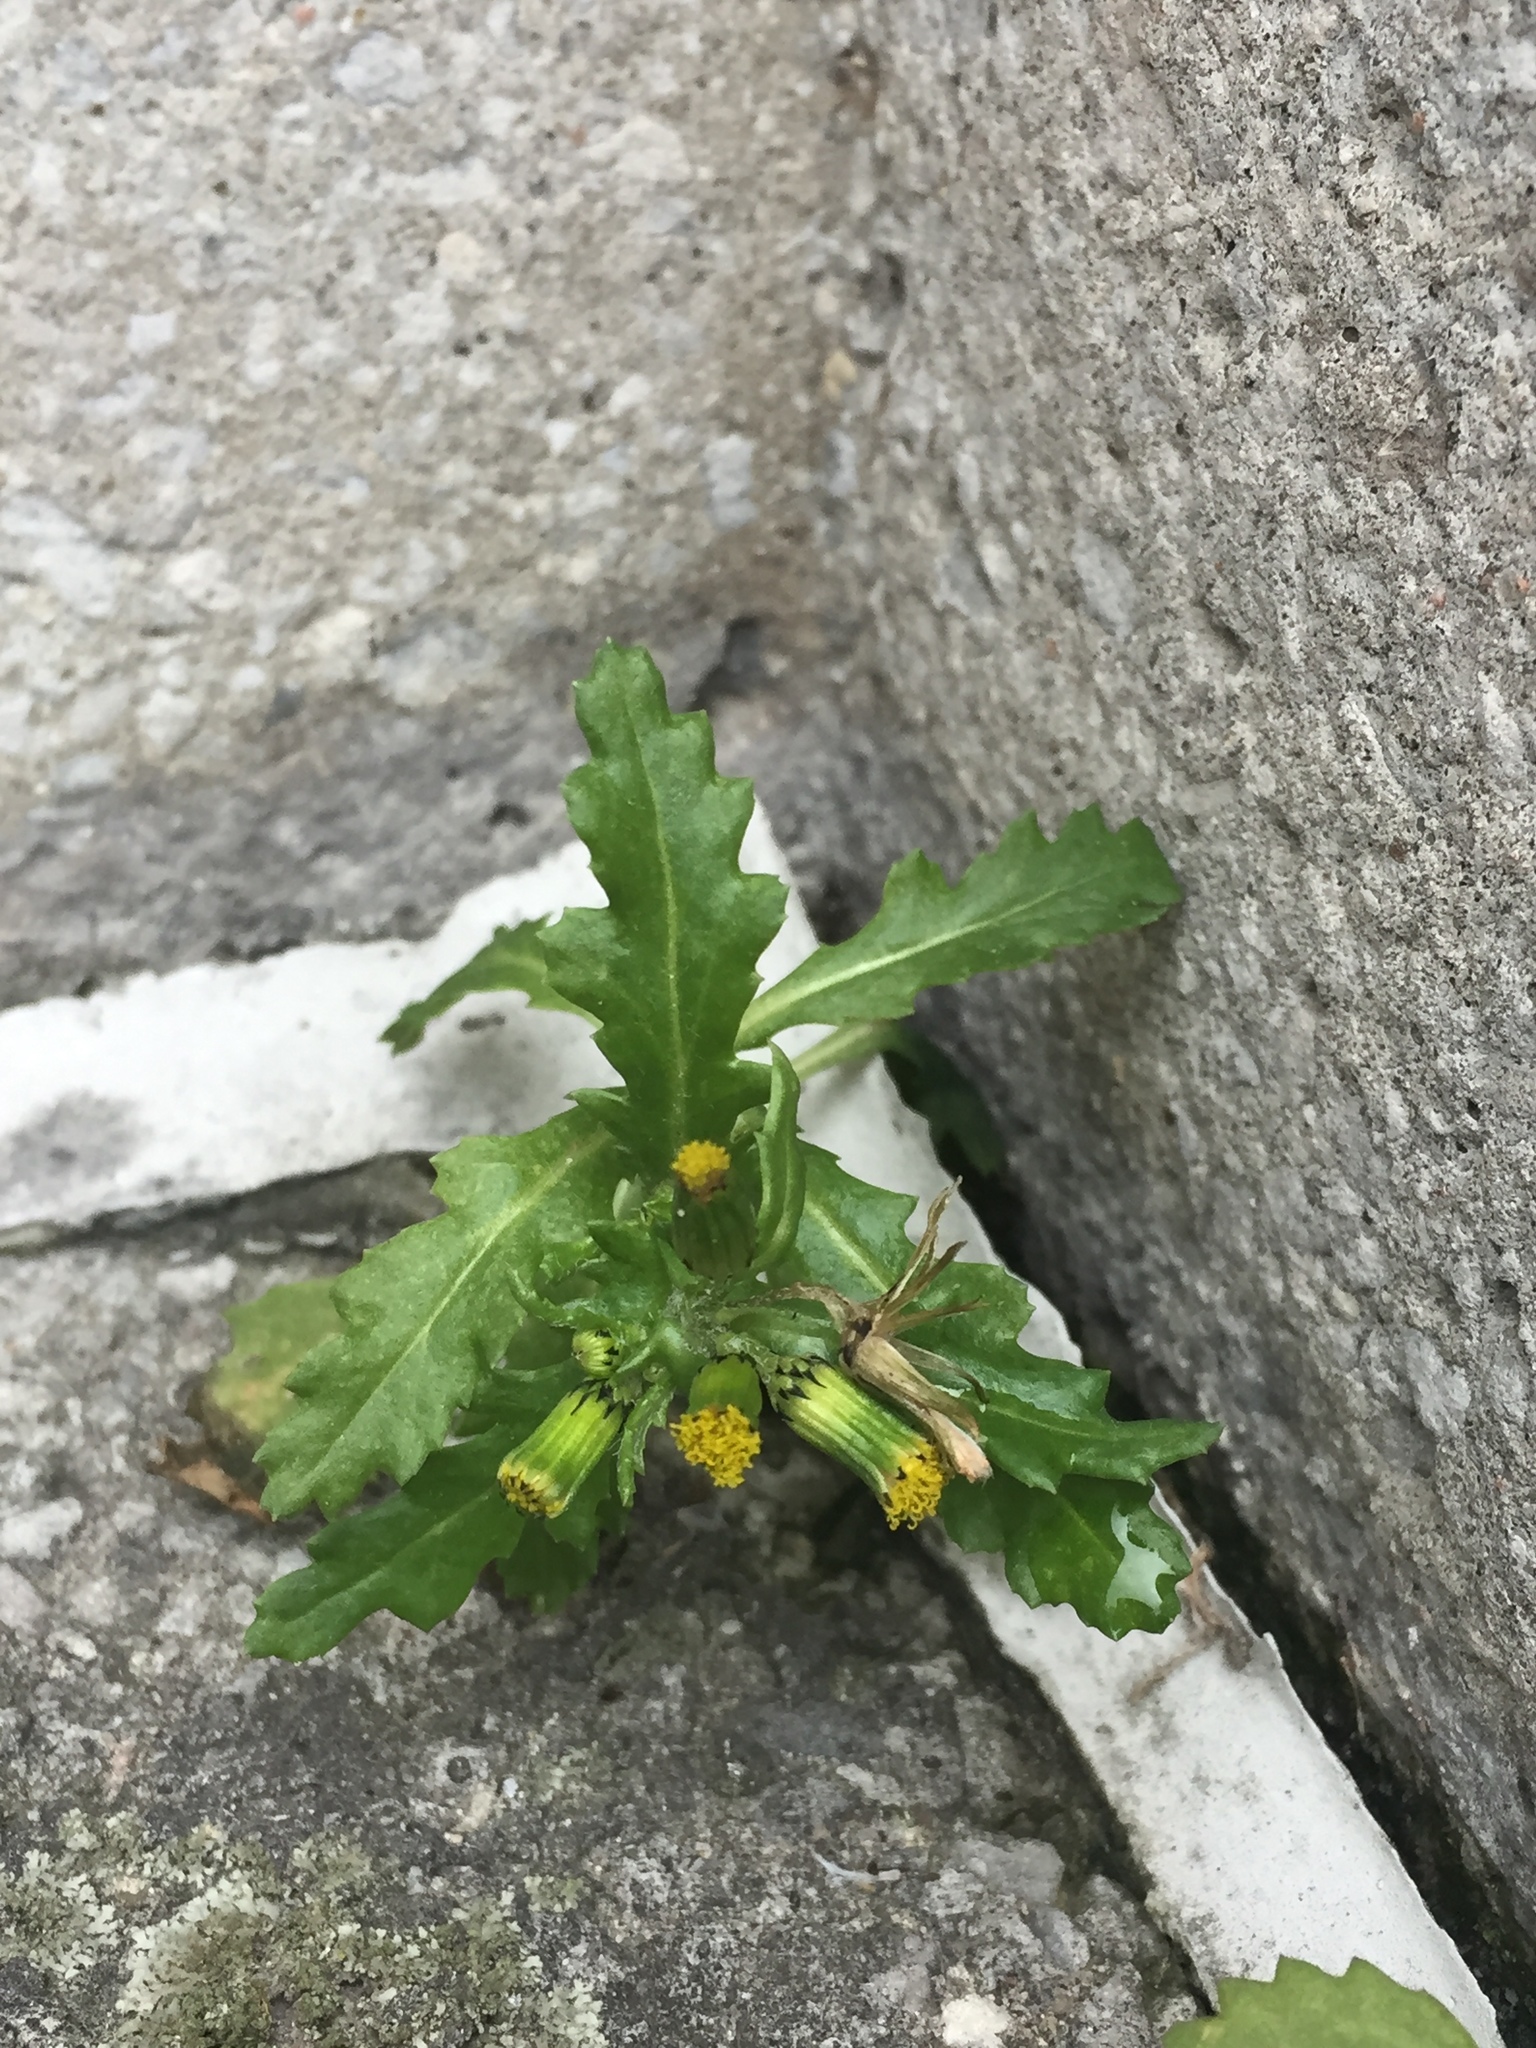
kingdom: Plantae
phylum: Tracheophyta
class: Magnoliopsida
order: Asterales
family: Asteraceae
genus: Senecio
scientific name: Senecio vulgaris
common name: Old-man-in-the-spring
